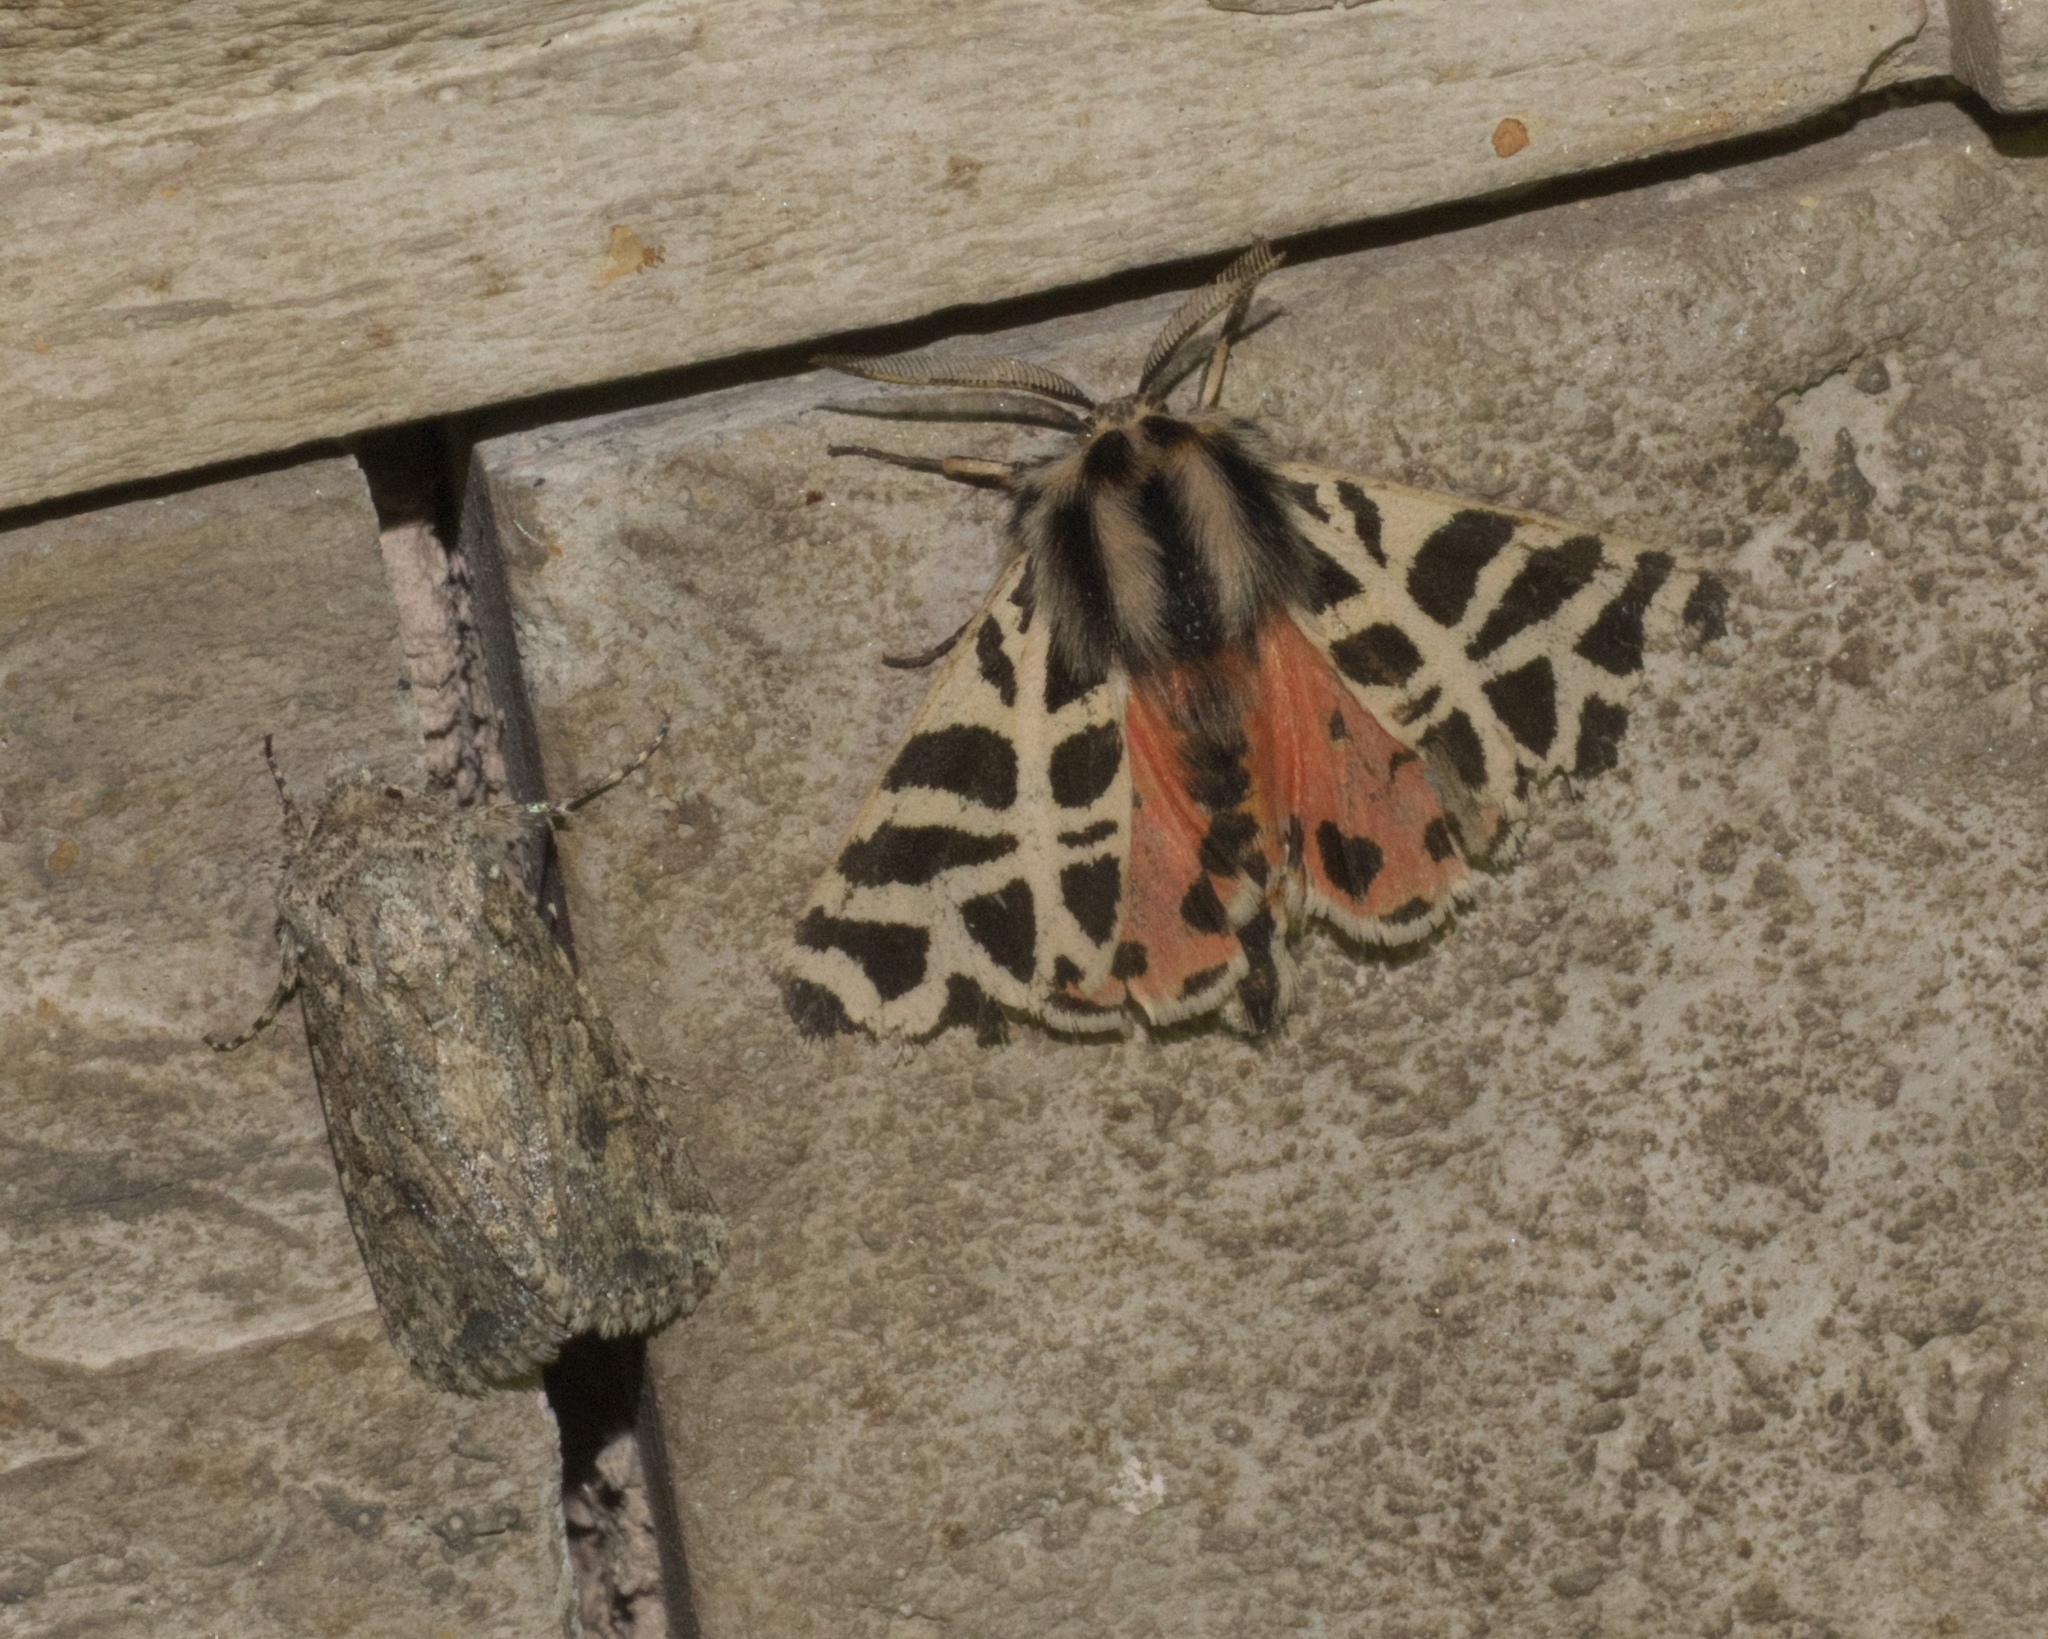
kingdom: Animalia
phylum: Arthropoda
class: Insecta
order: Lepidoptera
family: Erebidae
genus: Apantesis
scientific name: Apantesis
